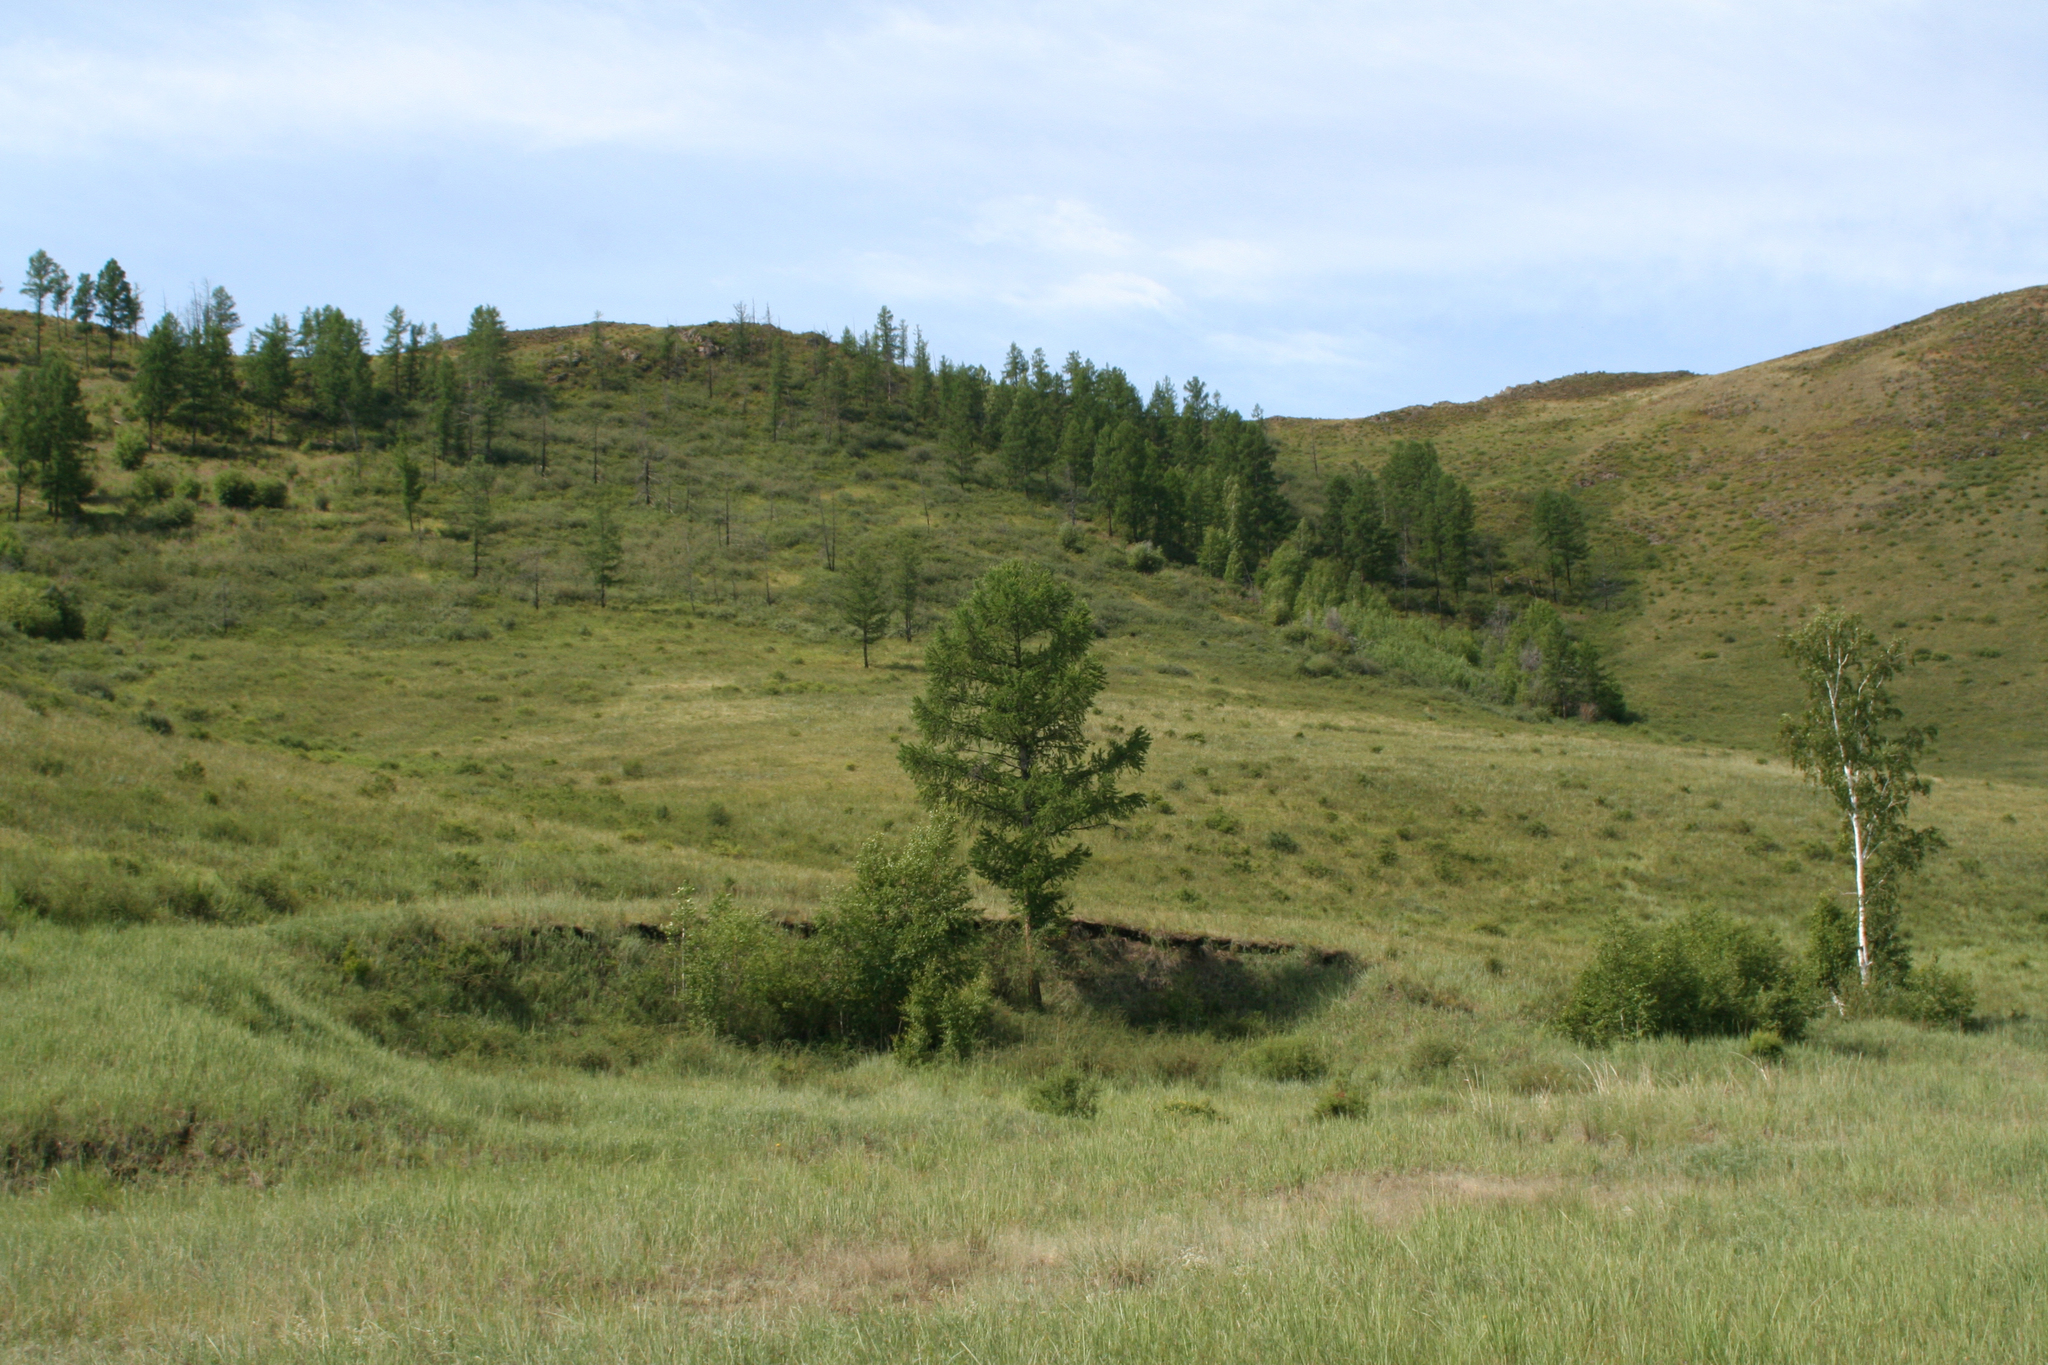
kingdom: Plantae
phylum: Tracheophyta
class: Pinopsida
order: Pinales
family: Pinaceae
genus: Larix
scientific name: Larix sibirica
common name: Siberian larch
